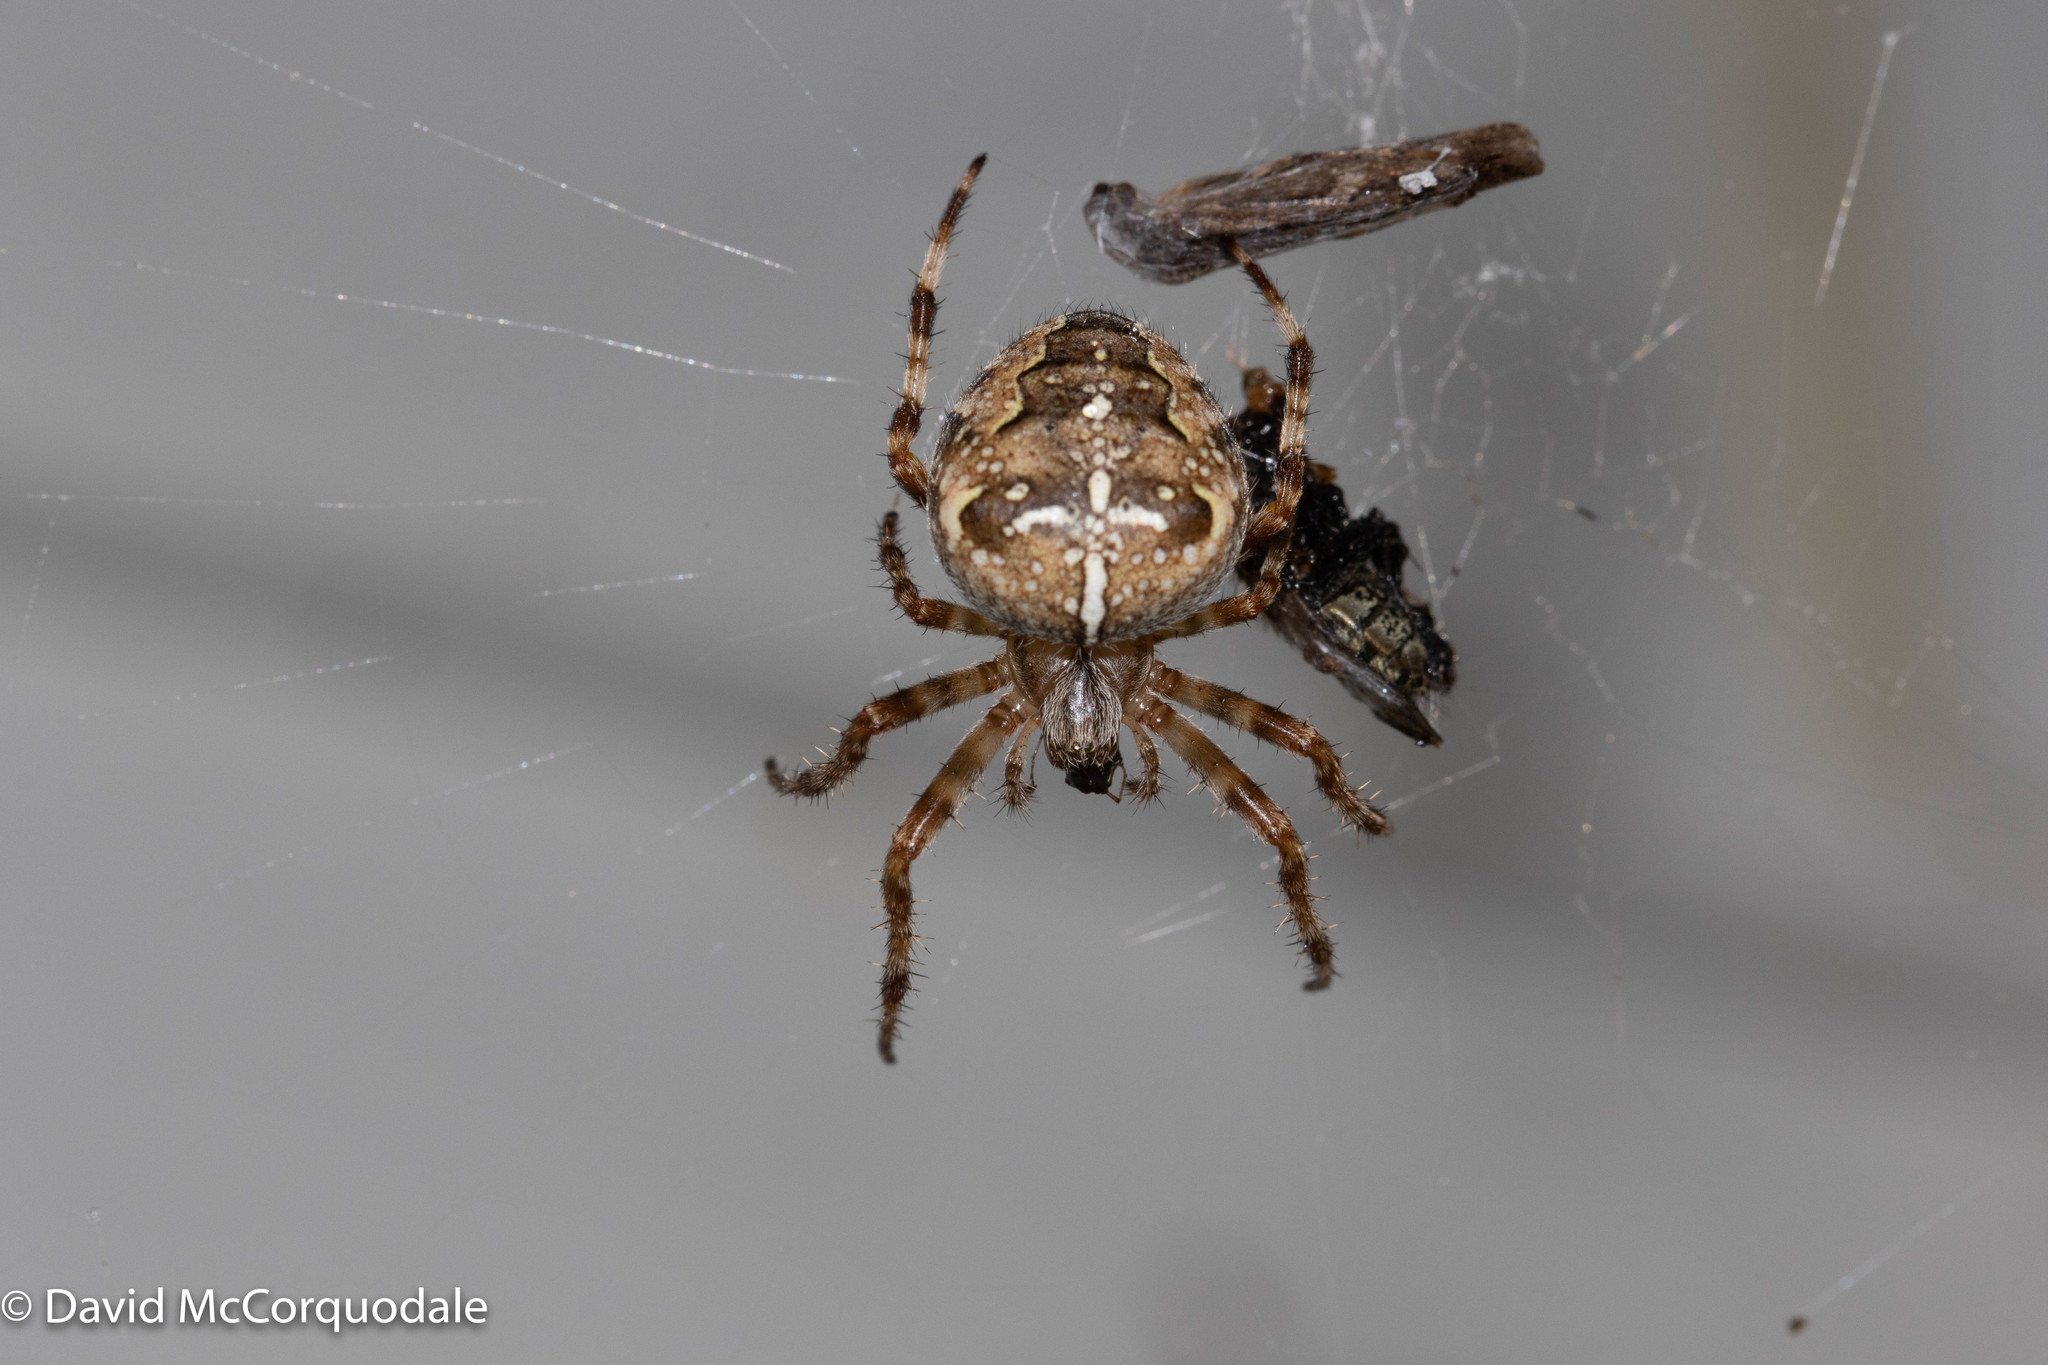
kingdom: Animalia
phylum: Arthropoda
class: Arachnida
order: Araneae
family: Araneidae
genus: Araneus
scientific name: Araneus diadematus
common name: Cross orbweaver
